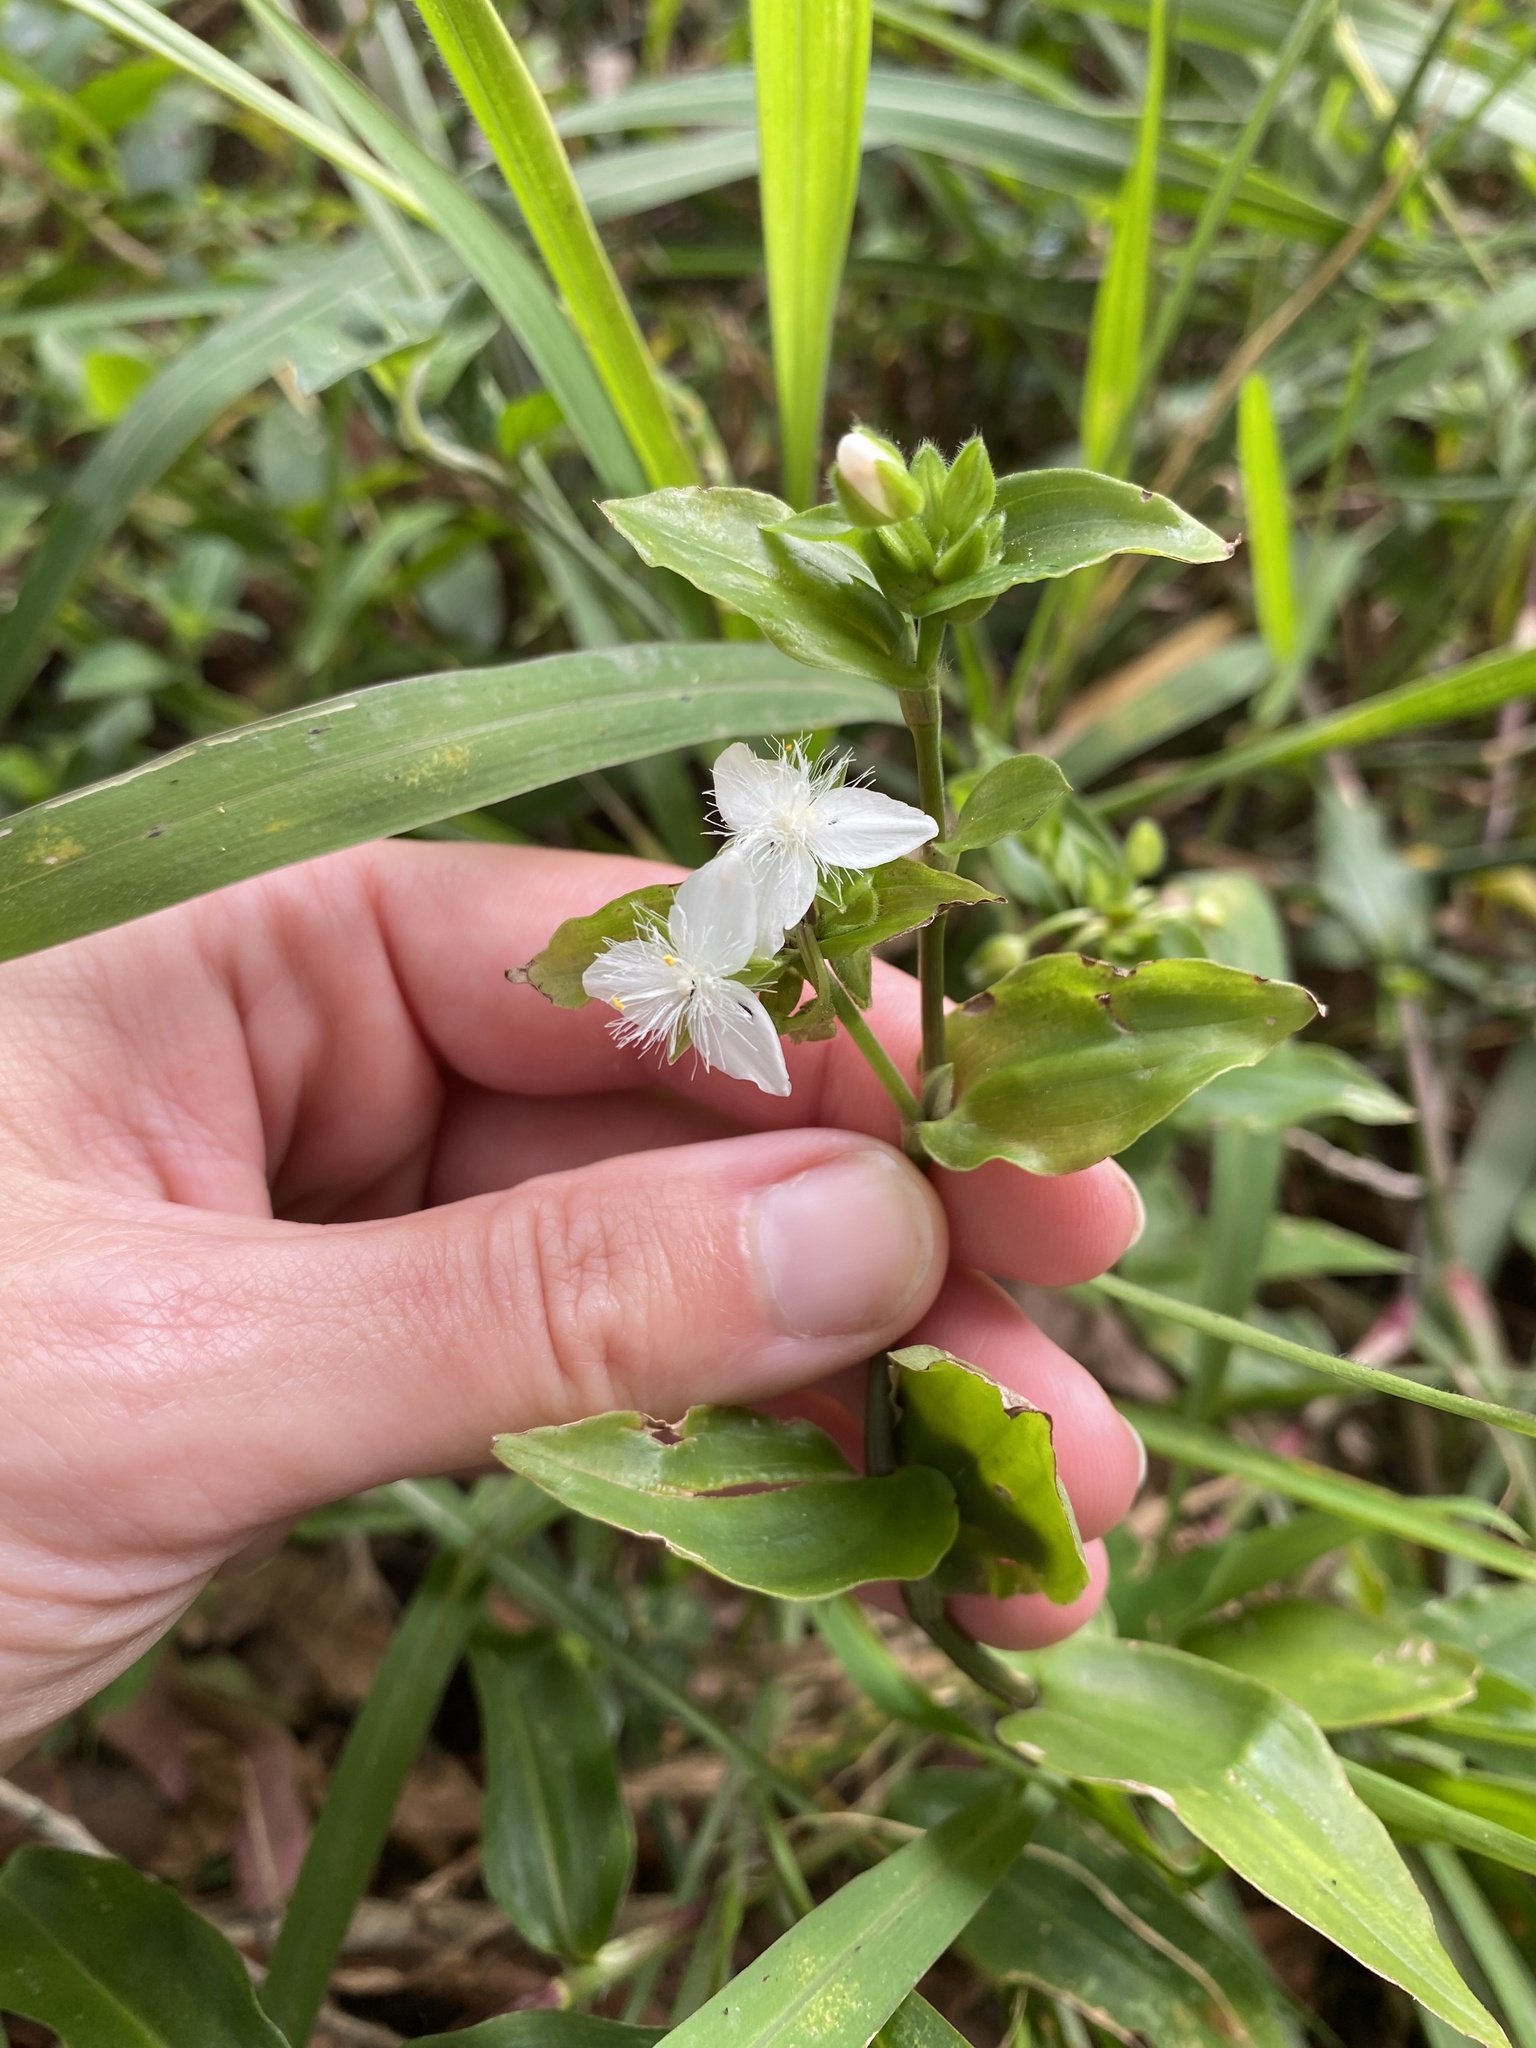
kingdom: Plantae
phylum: Tracheophyta
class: Liliopsida
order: Commelinales
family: Commelinaceae
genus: Tradescantia
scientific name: Tradescantia fluminensis
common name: Wandering-jew
